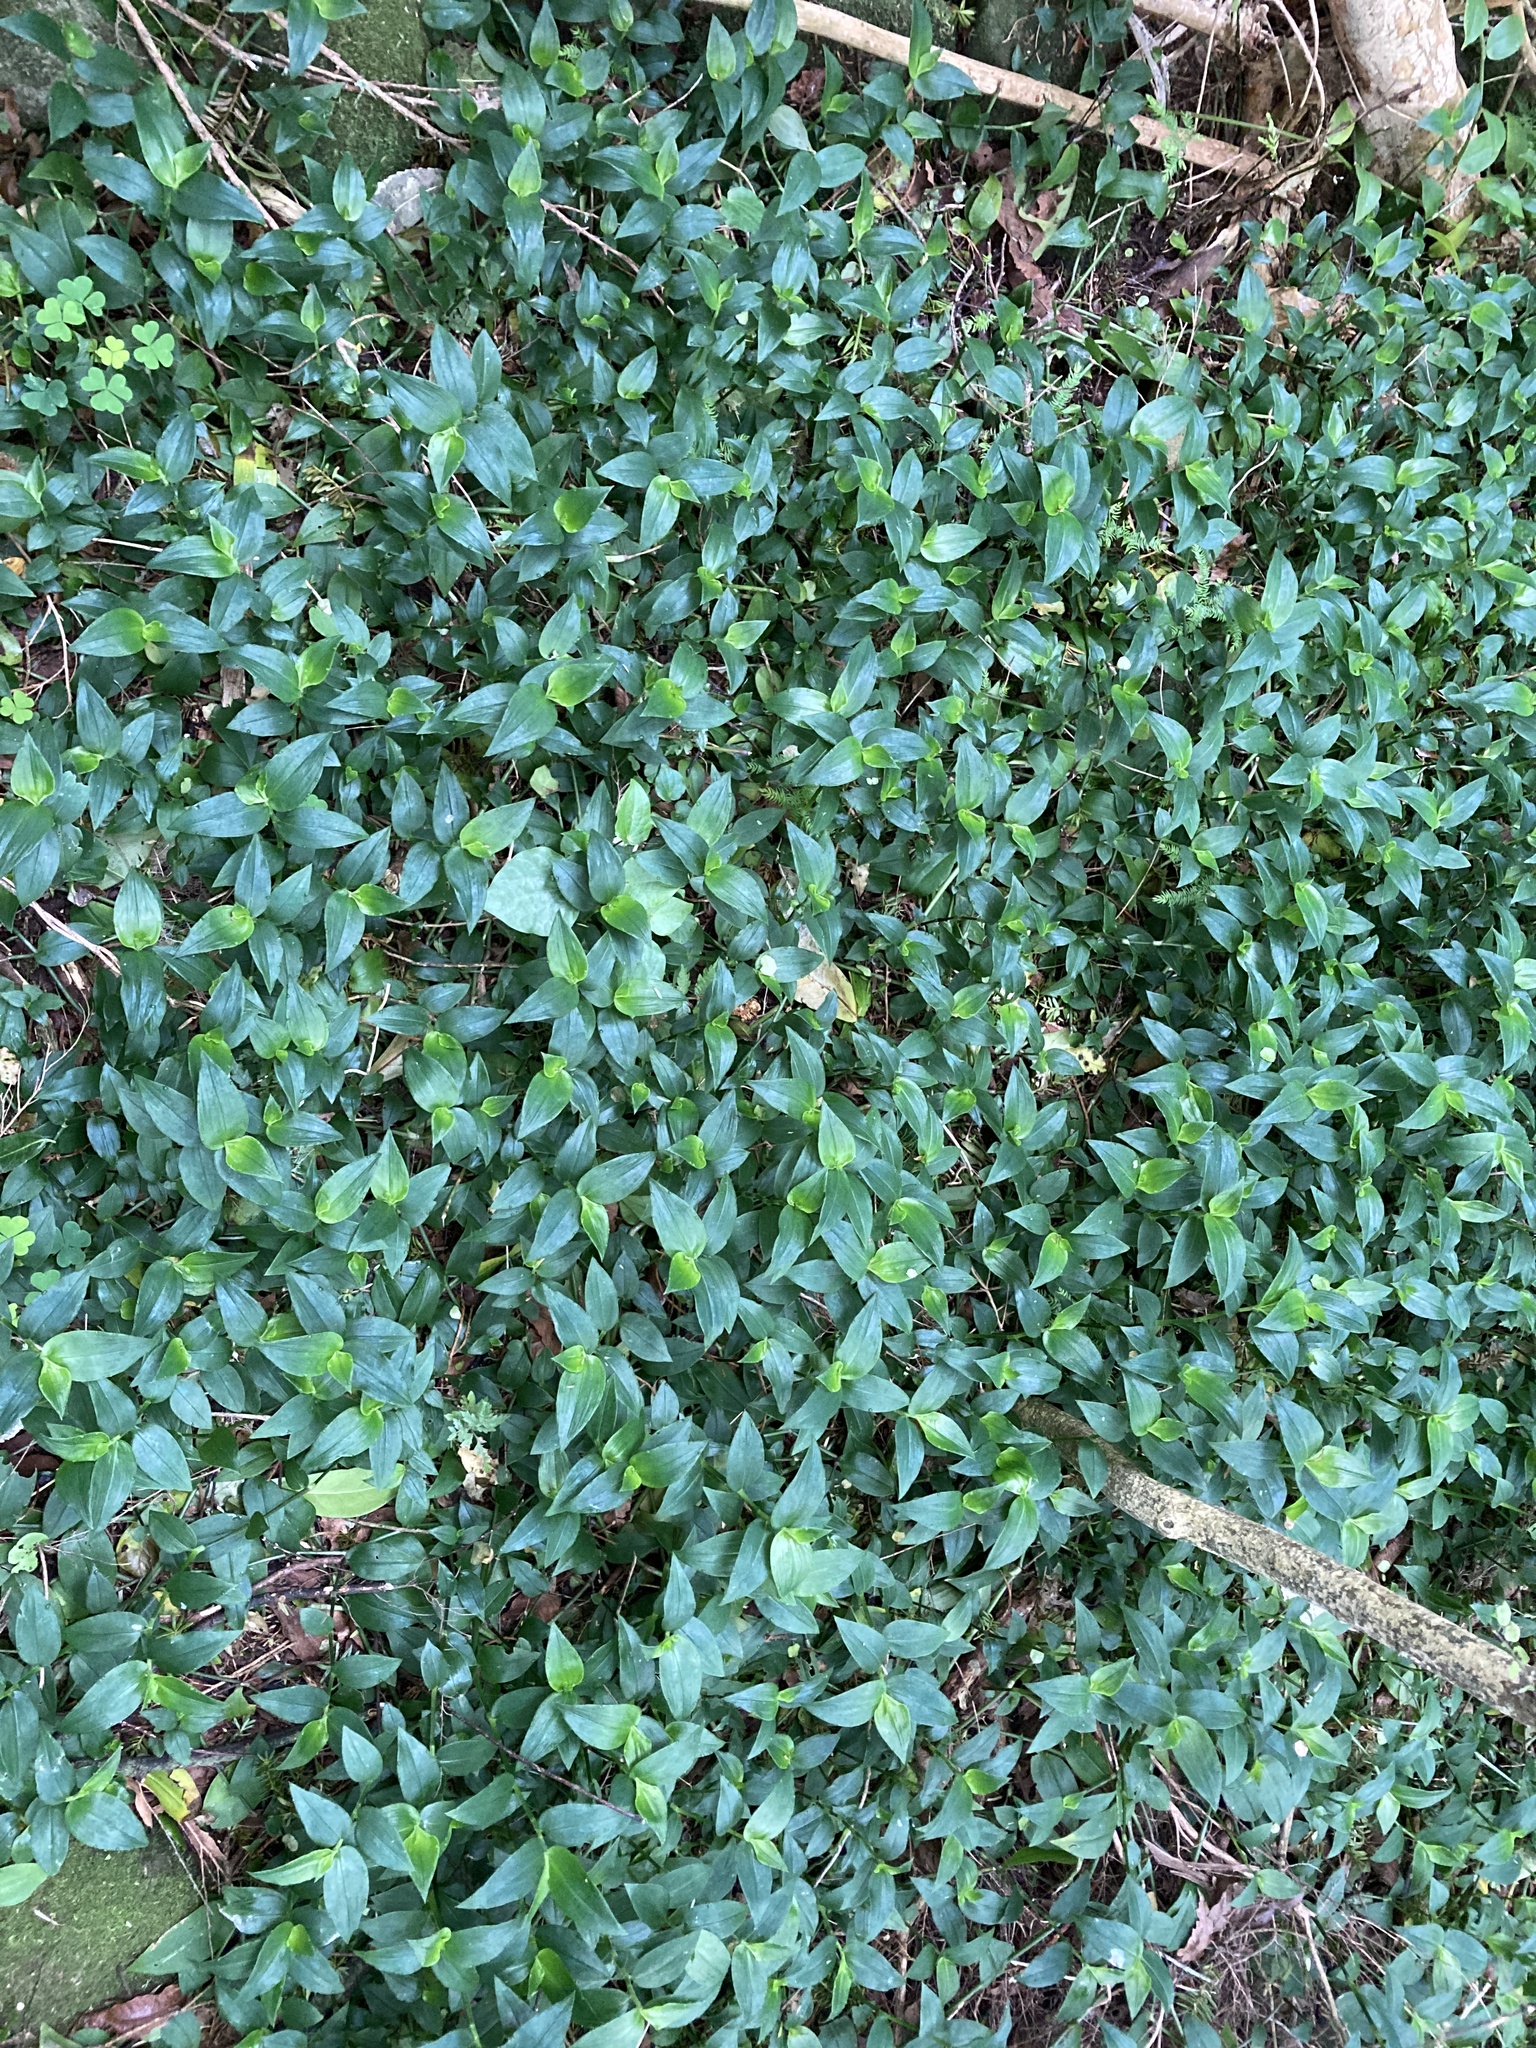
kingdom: Plantae
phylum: Tracheophyta
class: Liliopsida
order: Commelinales
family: Commelinaceae
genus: Tradescantia
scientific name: Tradescantia fluminensis
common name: Wandering-jew
